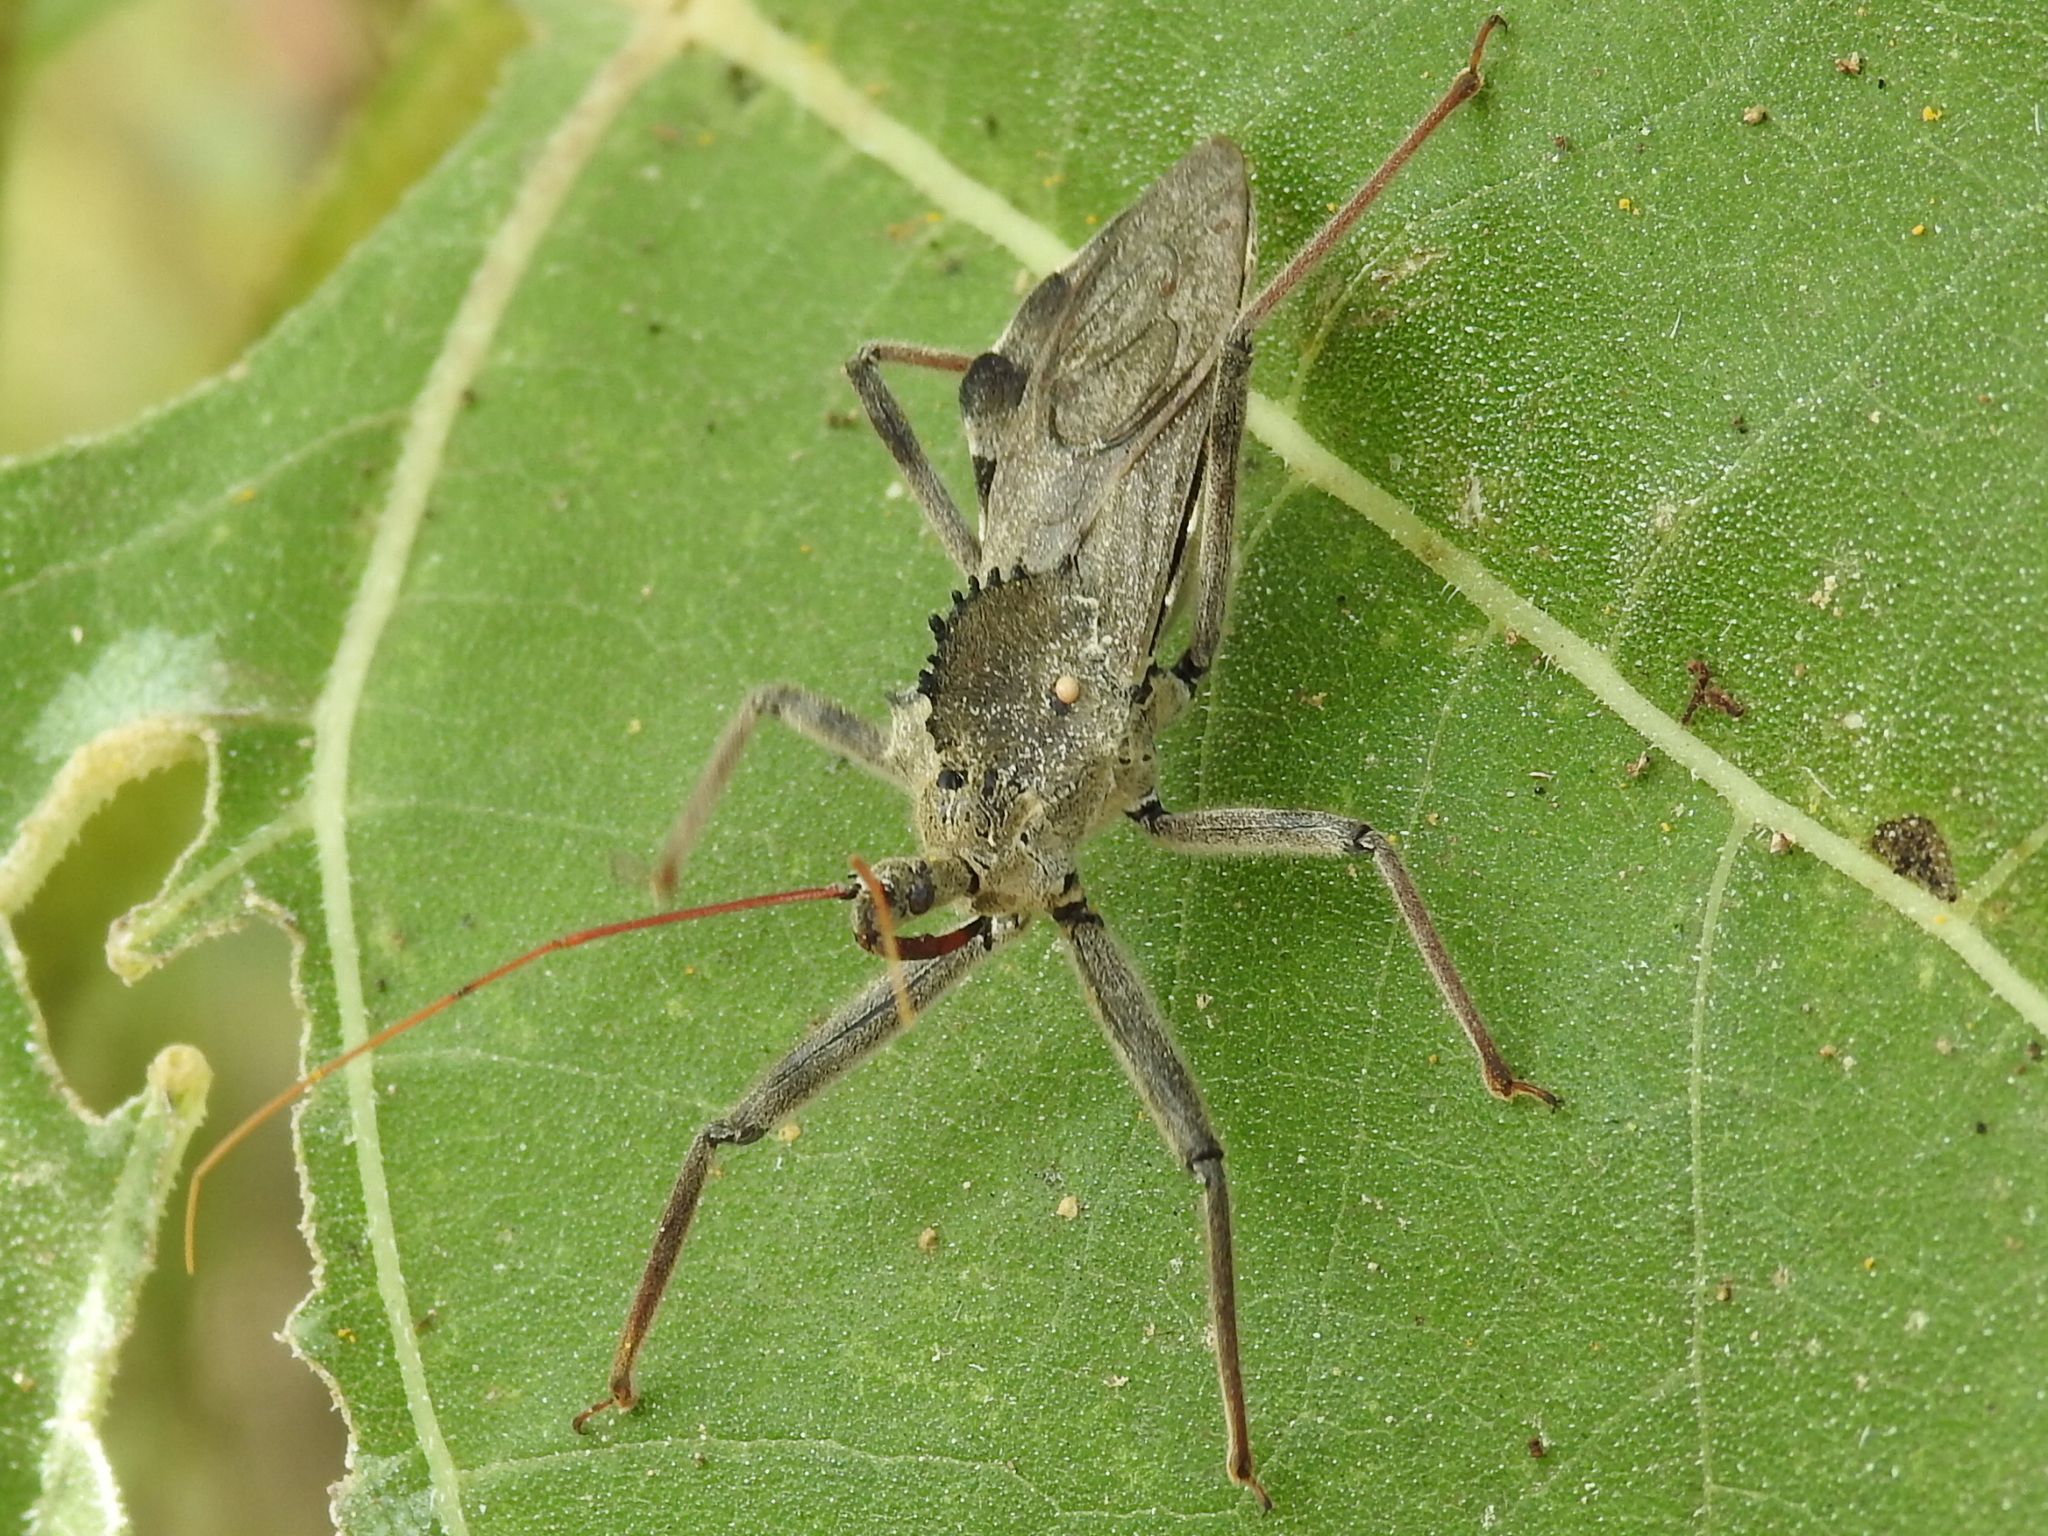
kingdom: Animalia
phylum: Arthropoda
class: Insecta
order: Hemiptera
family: Reduviidae
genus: Arilus
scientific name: Arilus cristatus
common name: North american wheel bug
